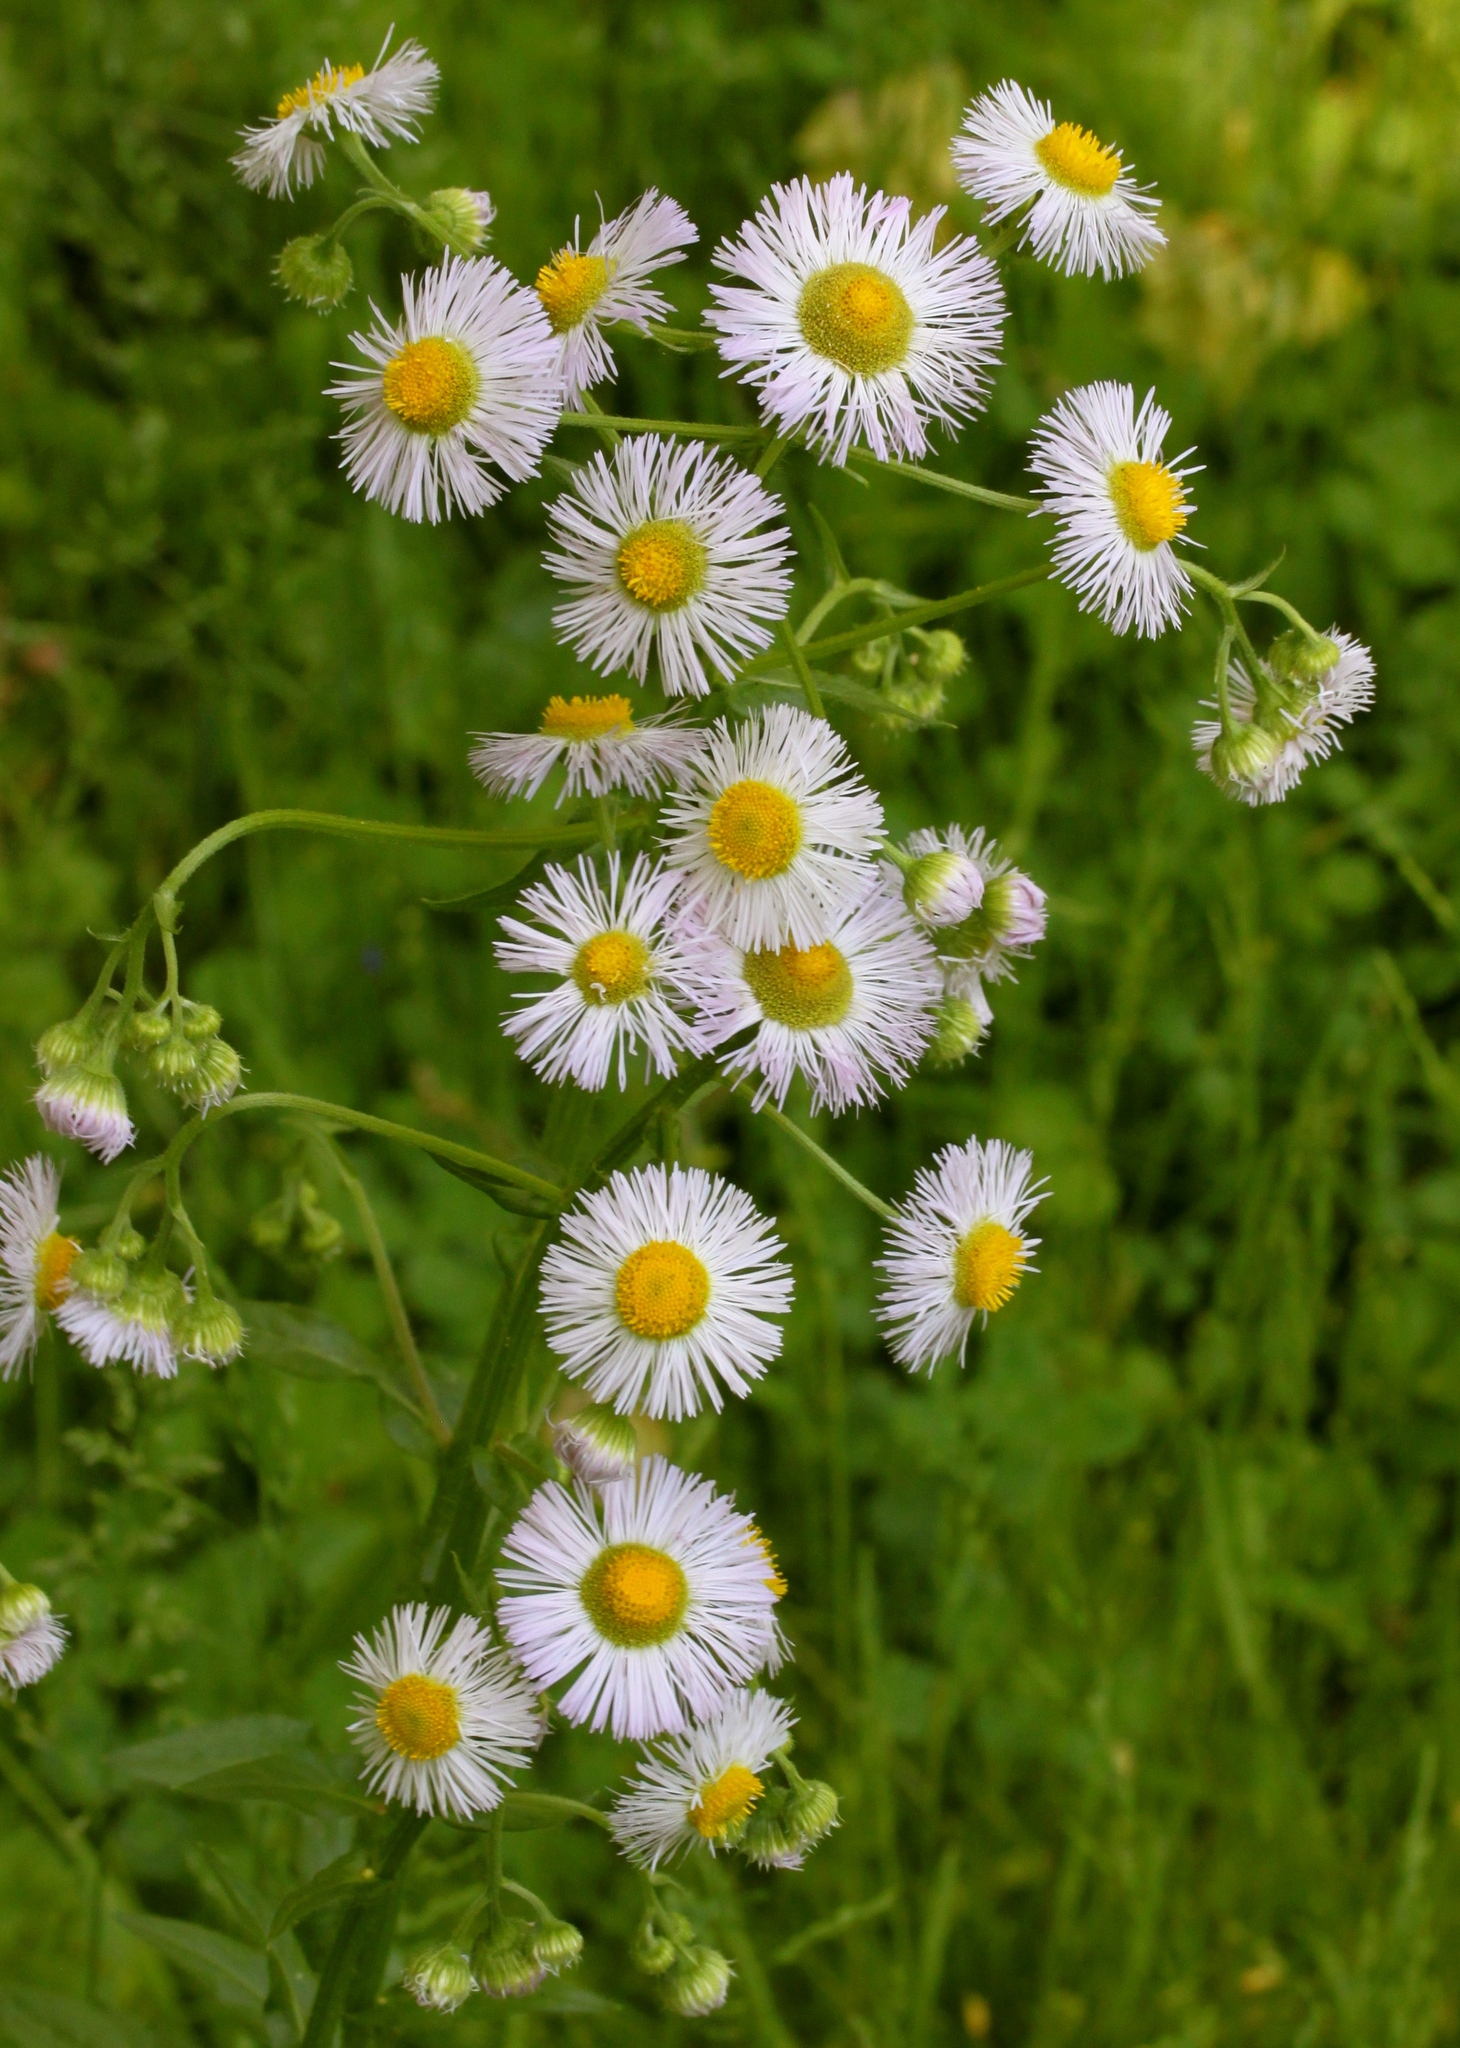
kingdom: Plantae
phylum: Tracheophyta
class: Magnoliopsida
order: Asterales
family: Asteraceae
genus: Erigeron
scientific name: Erigeron annuus
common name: Tall fleabane
